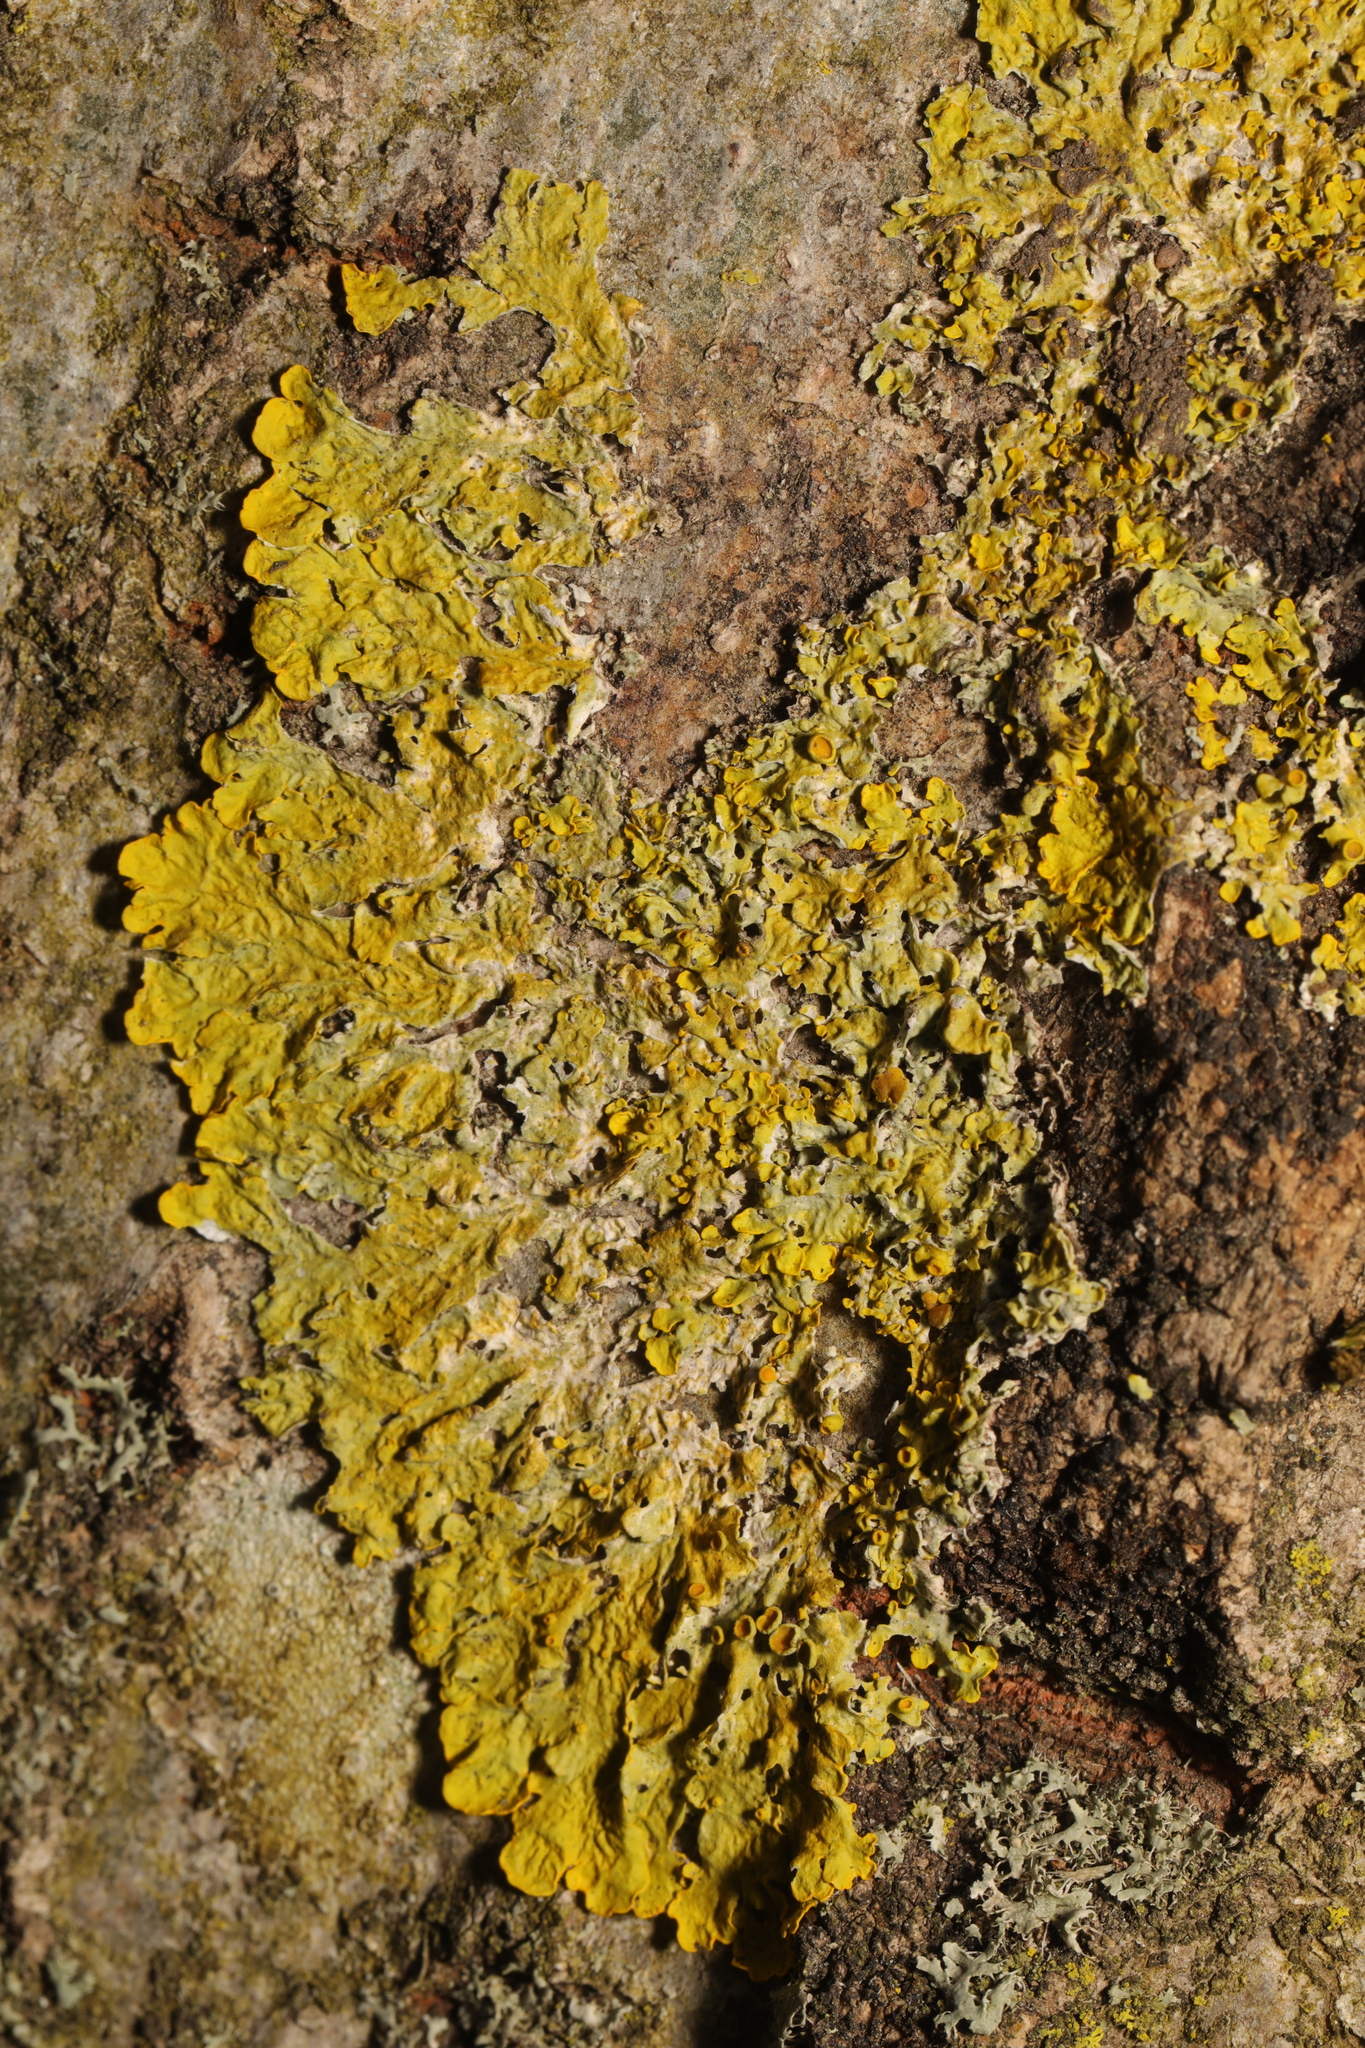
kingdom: Fungi
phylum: Ascomycota
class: Lecanoromycetes
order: Teloschistales
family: Teloschistaceae
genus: Xanthoria
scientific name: Xanthoria parietina
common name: Common orange lichen
